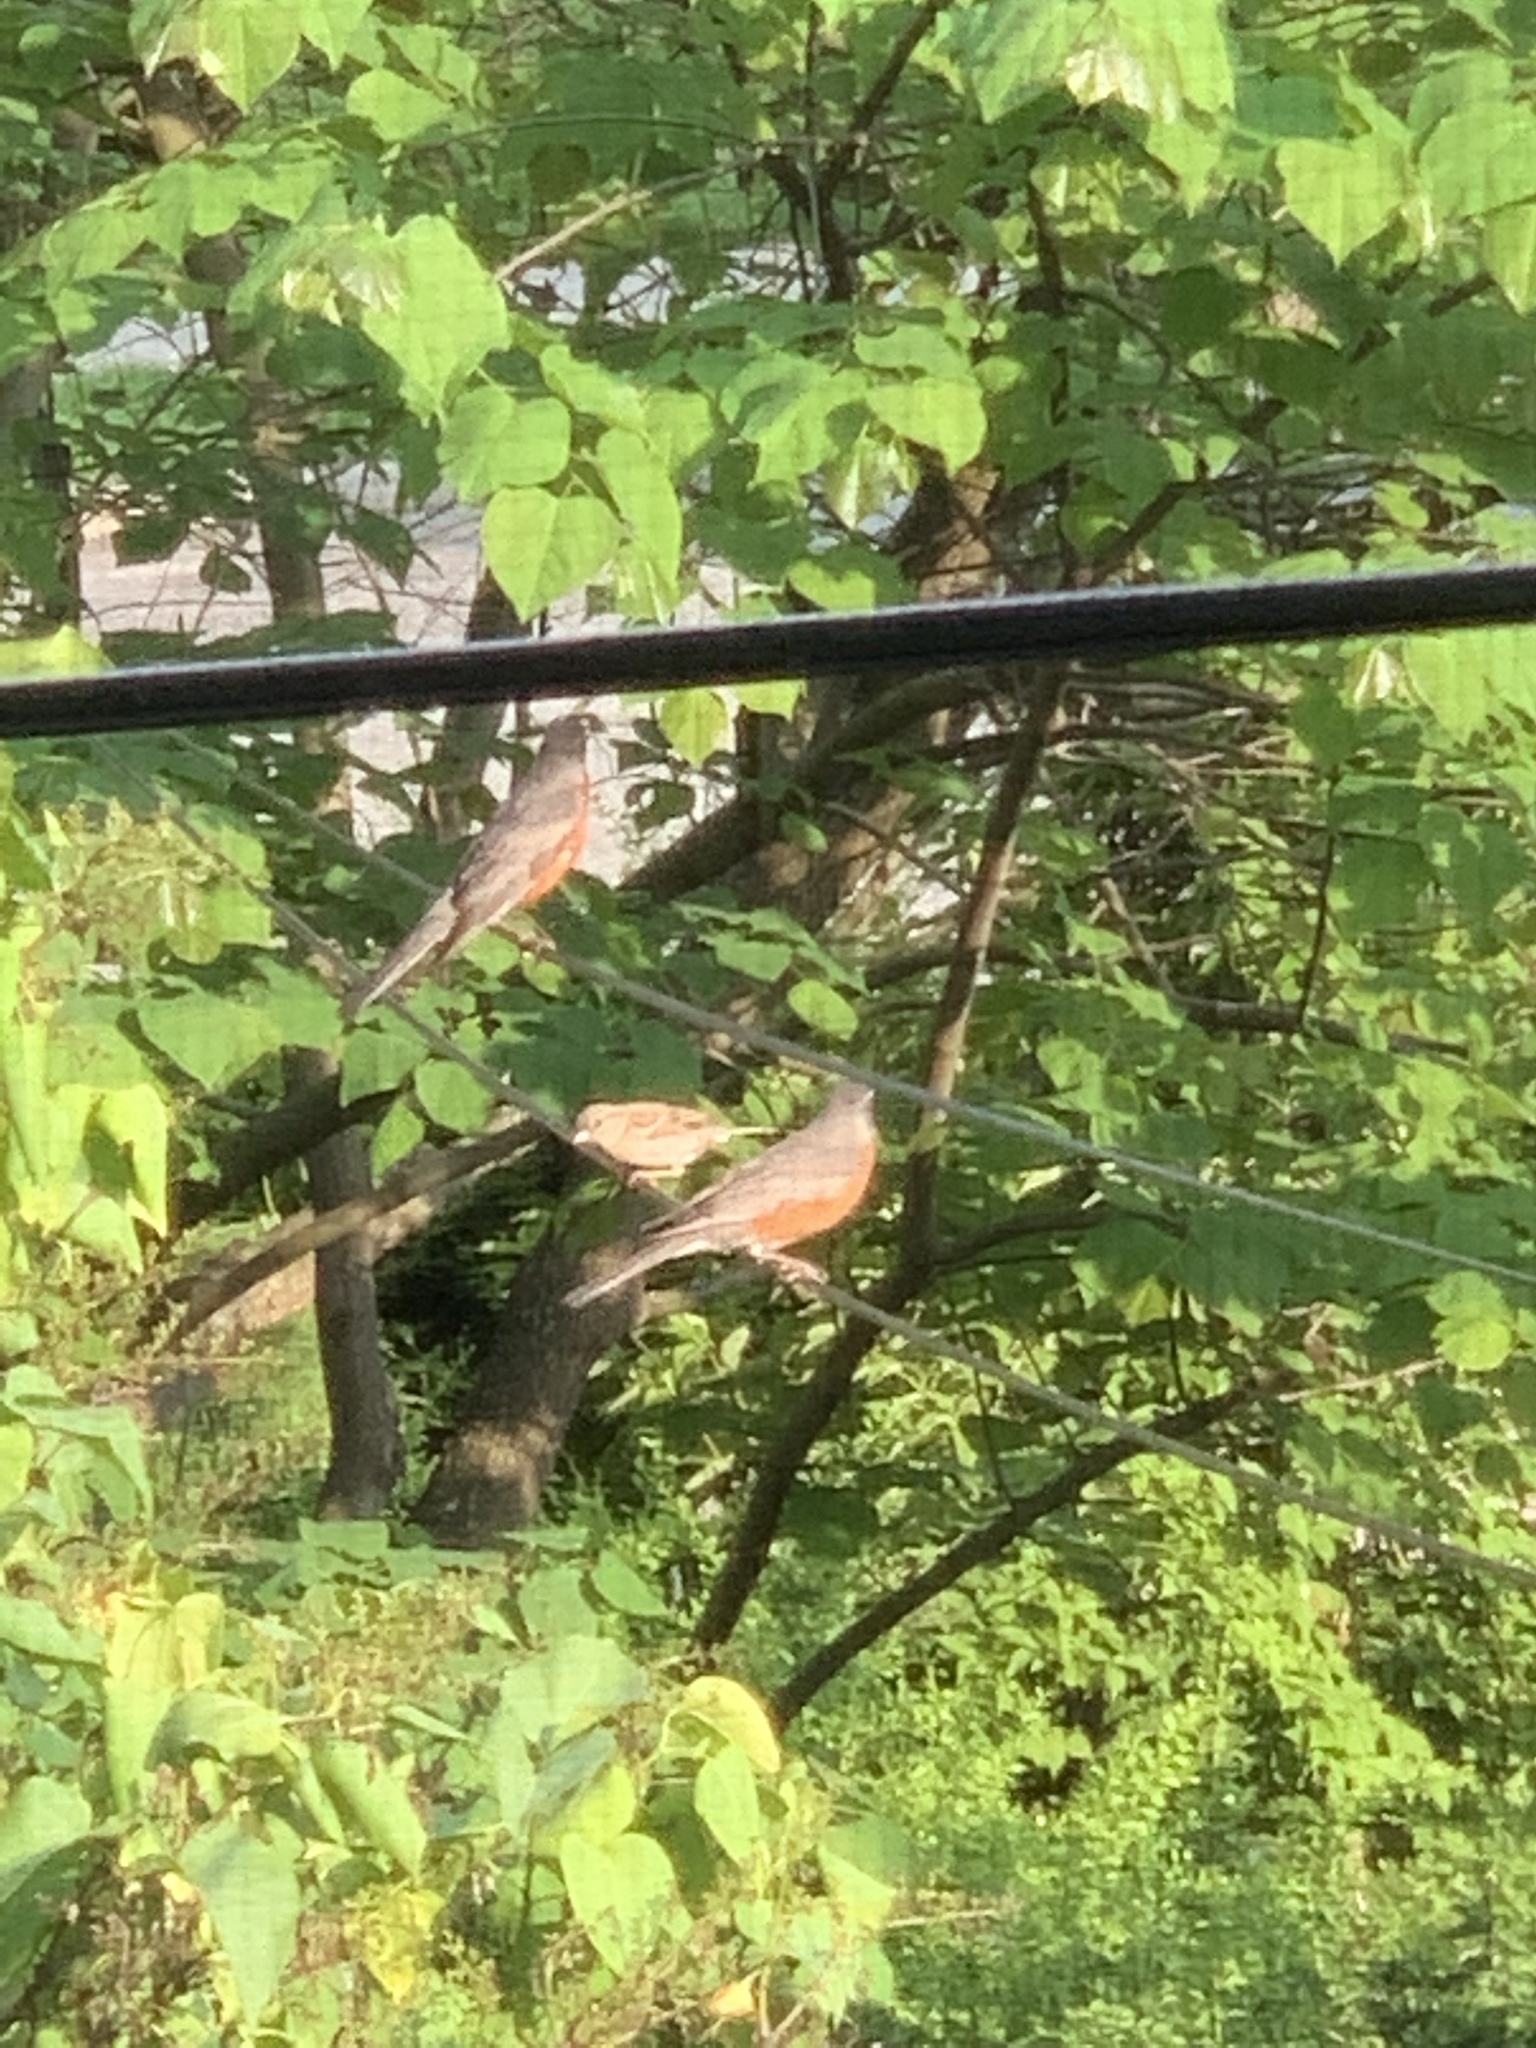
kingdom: Animalia
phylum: Chordata
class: Aves
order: Passeriformes
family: Turdidae
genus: Turdus
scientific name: Turdus migratorius
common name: American robin
